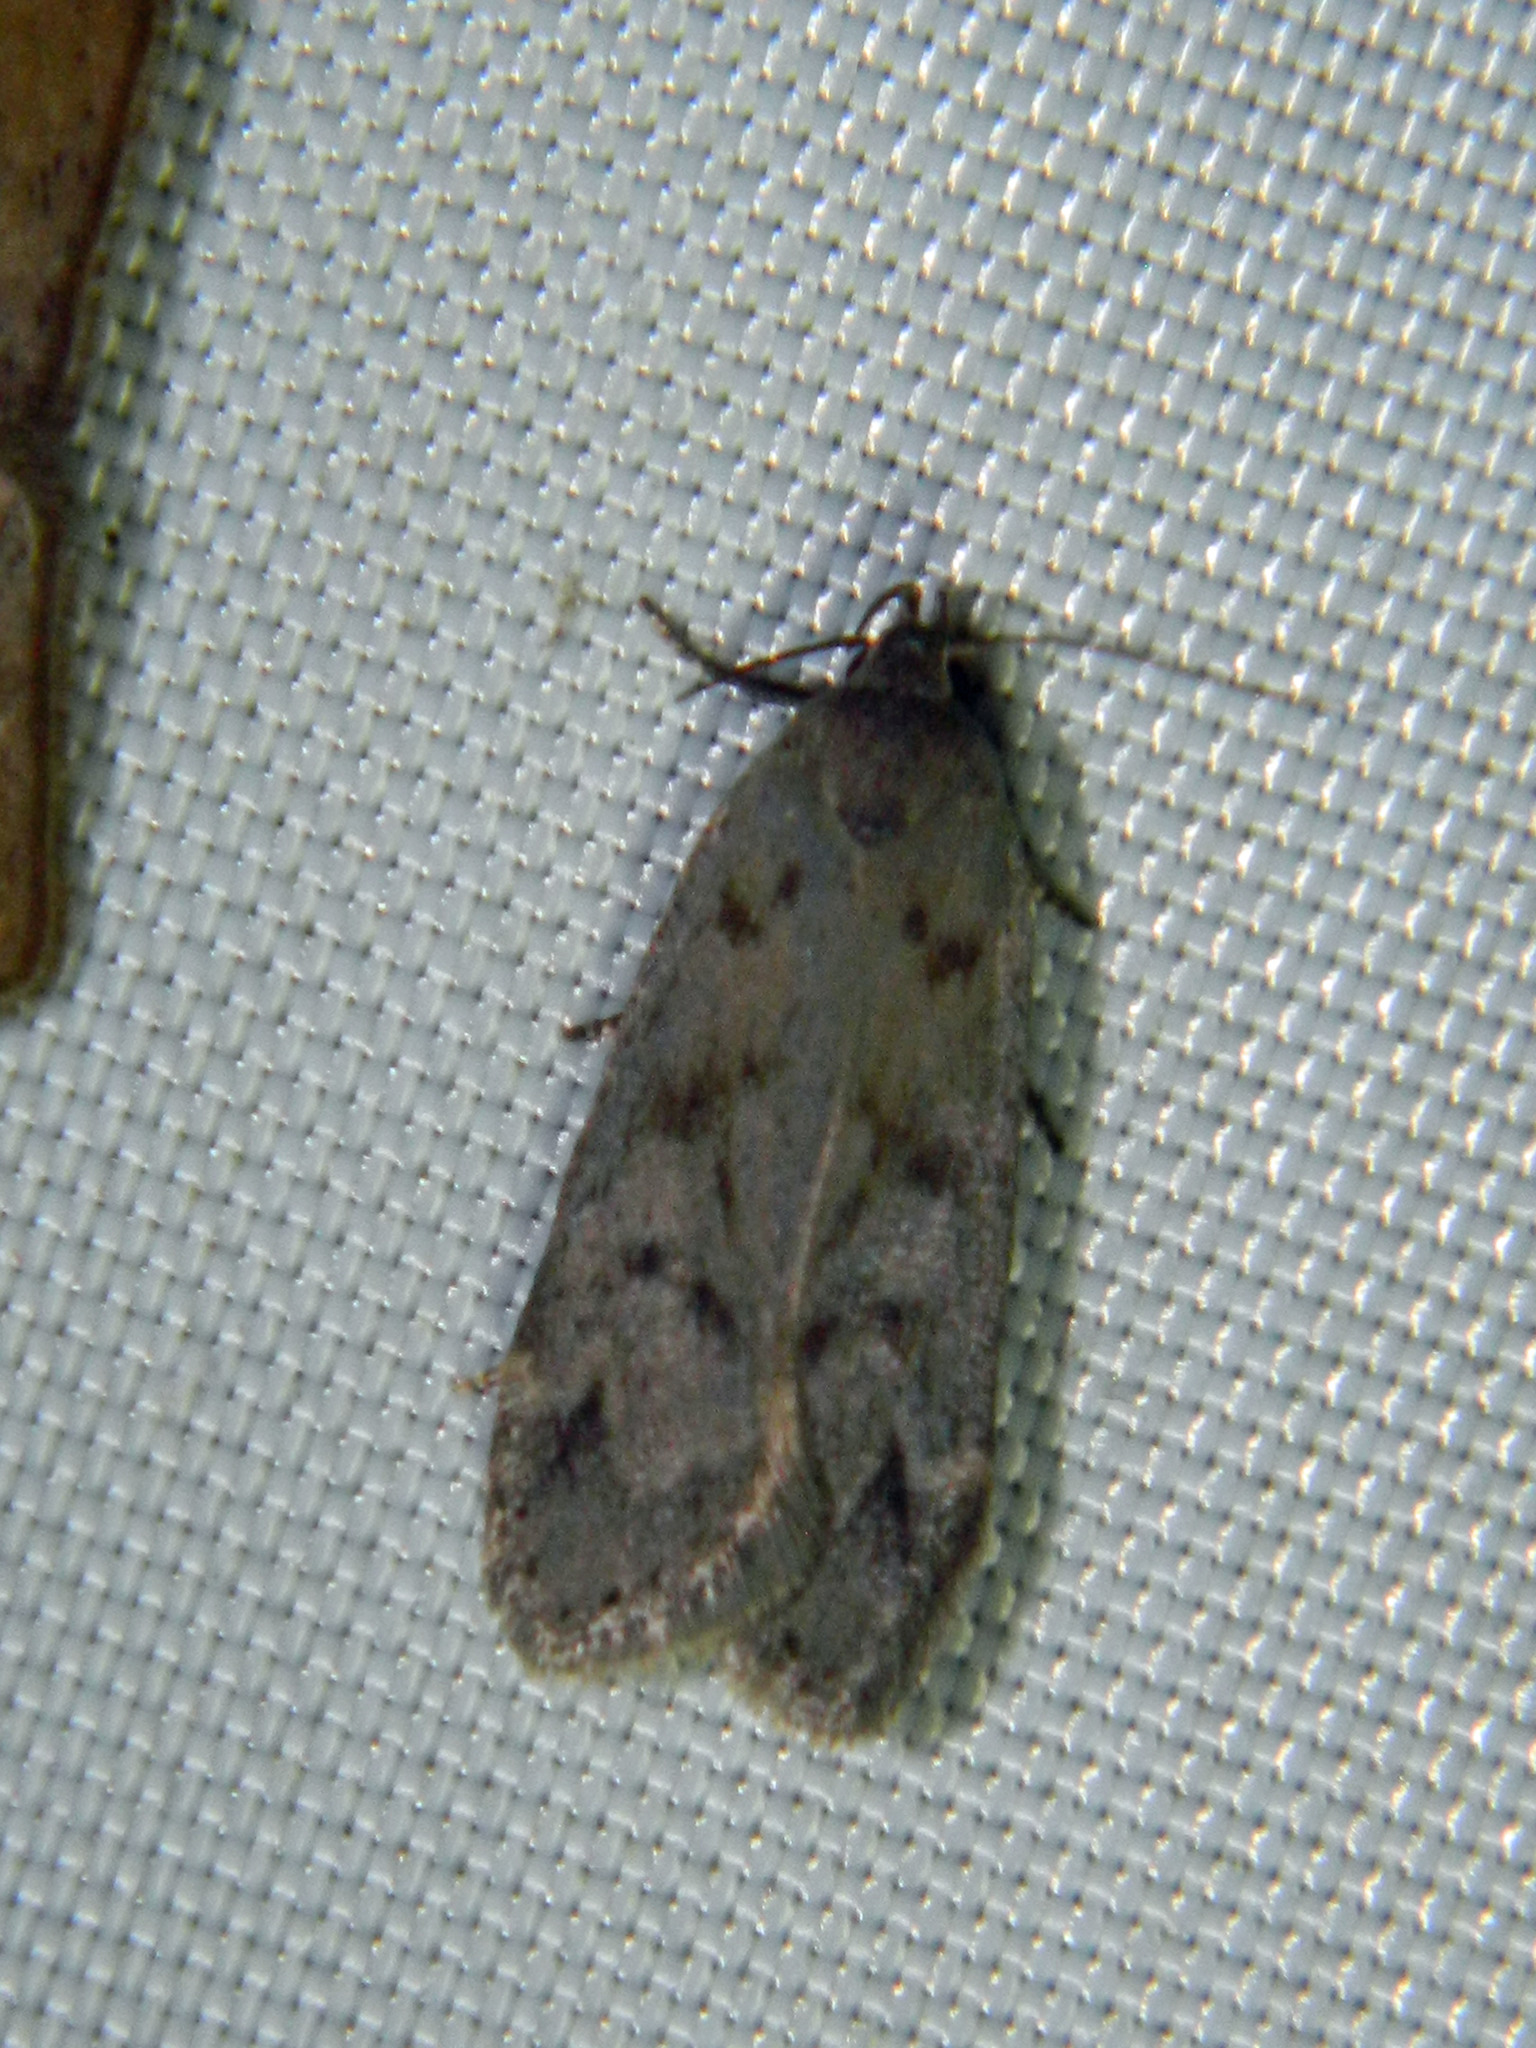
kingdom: Animalia
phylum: Arthropoda
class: Insecta
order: Lepidoptera
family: Gelechiidae
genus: Anacampsis
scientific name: Anacampsis innocuella
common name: Dark-headed aspen leafroller moth
